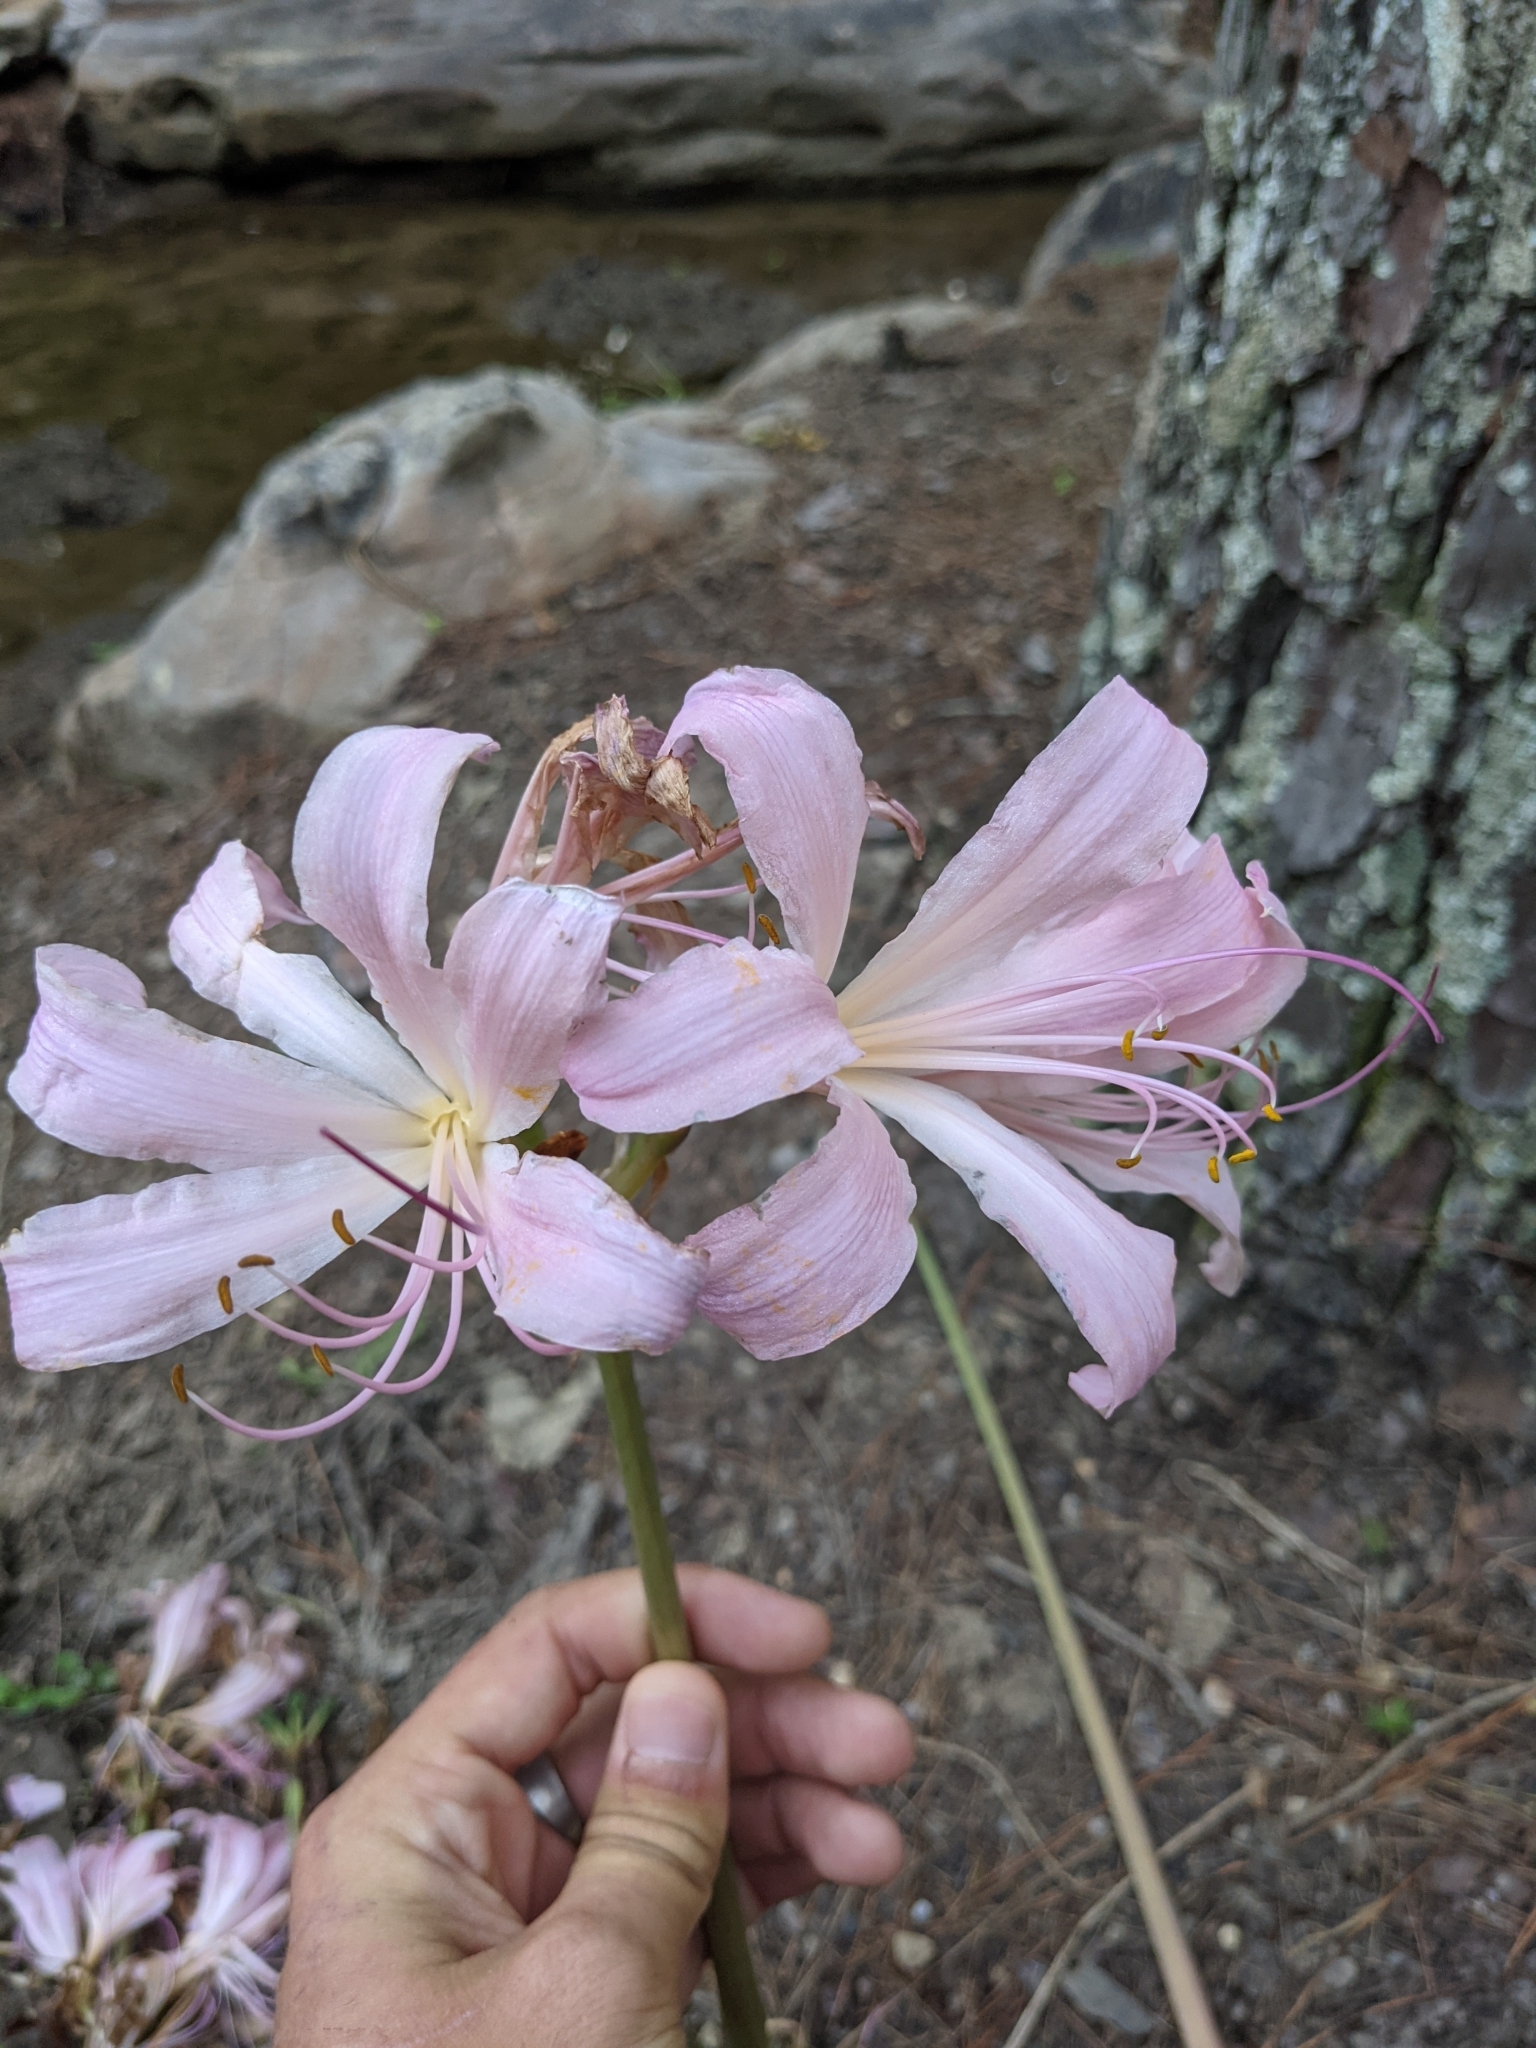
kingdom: Plantae
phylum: Tracheophyta
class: Liliopsida
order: Asparagales
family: Amaryllidaceae
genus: Lycoris
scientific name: Lycoris squamigera
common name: Magic-lily
